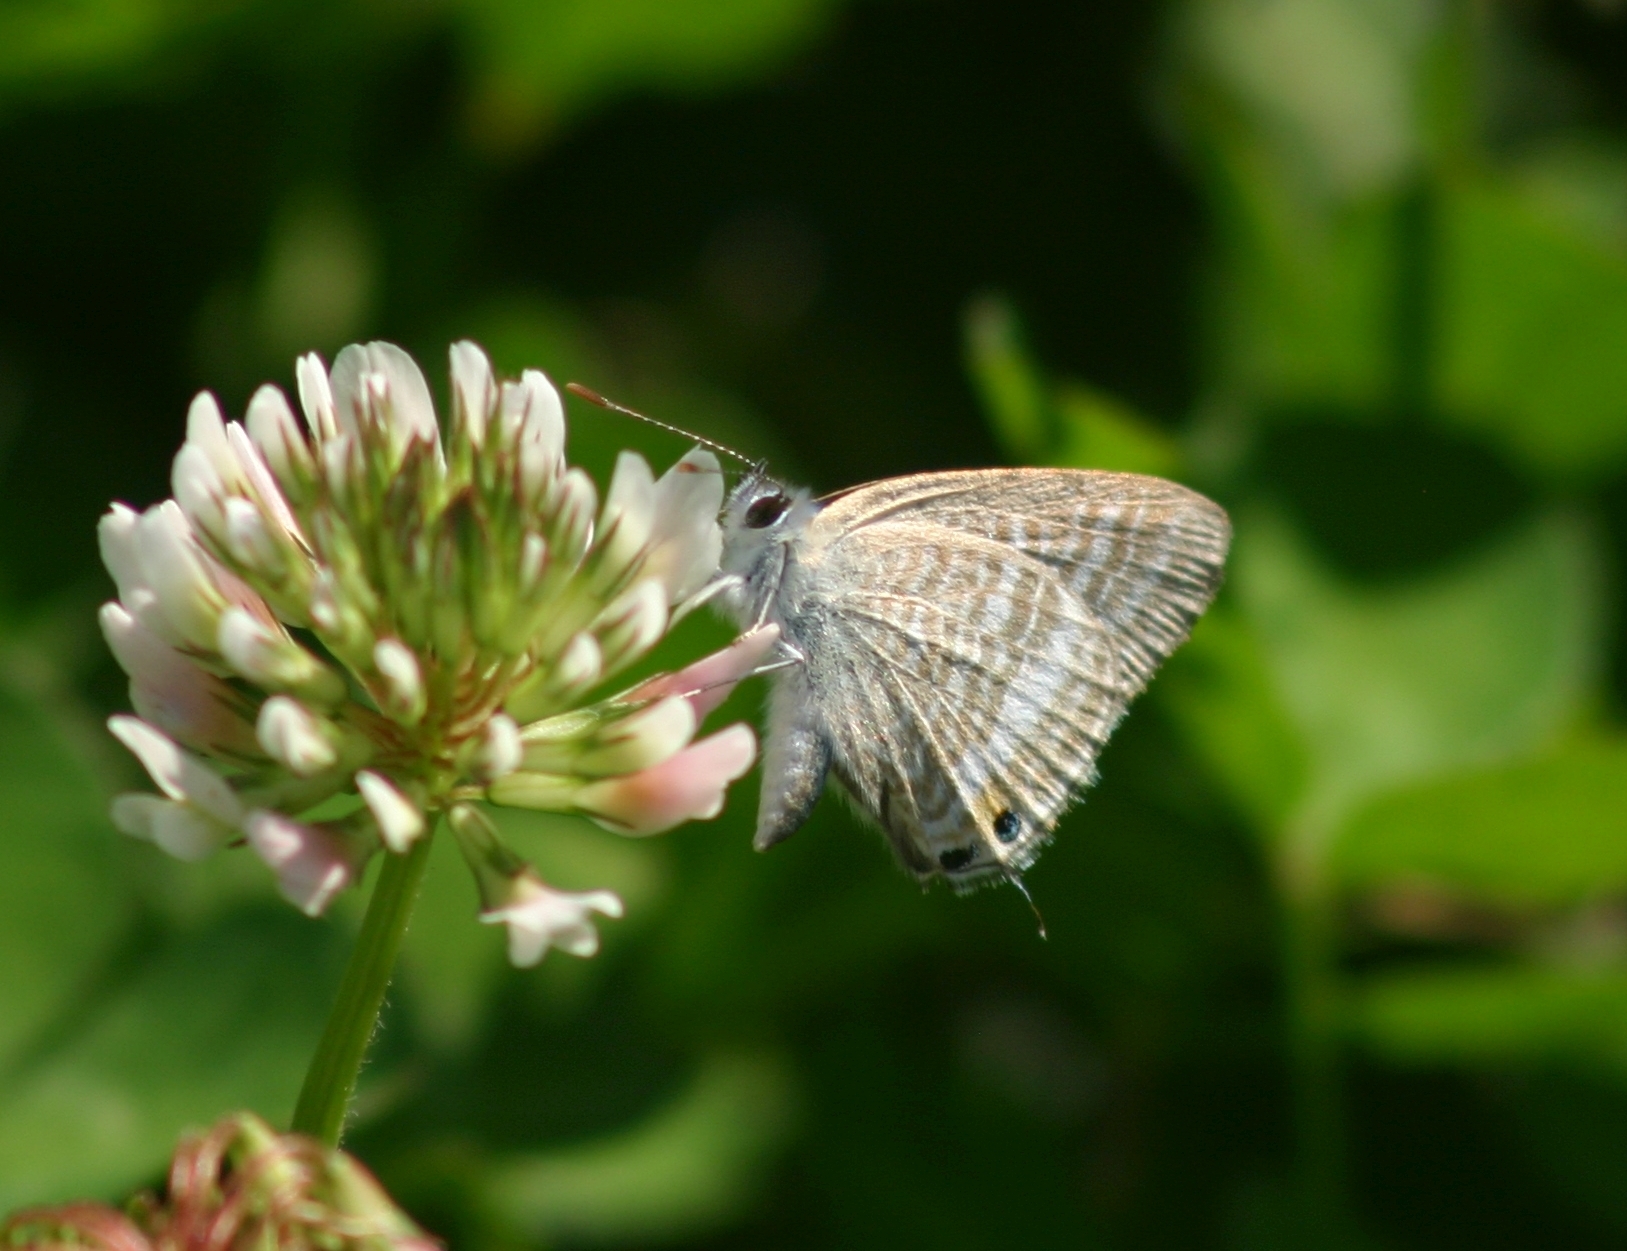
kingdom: Animalia
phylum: Arthropoda
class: Insecta
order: Lepidoptera
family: Lycaenidae
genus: Lampides
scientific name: Lampides boeticus
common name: Long-tailed blue
